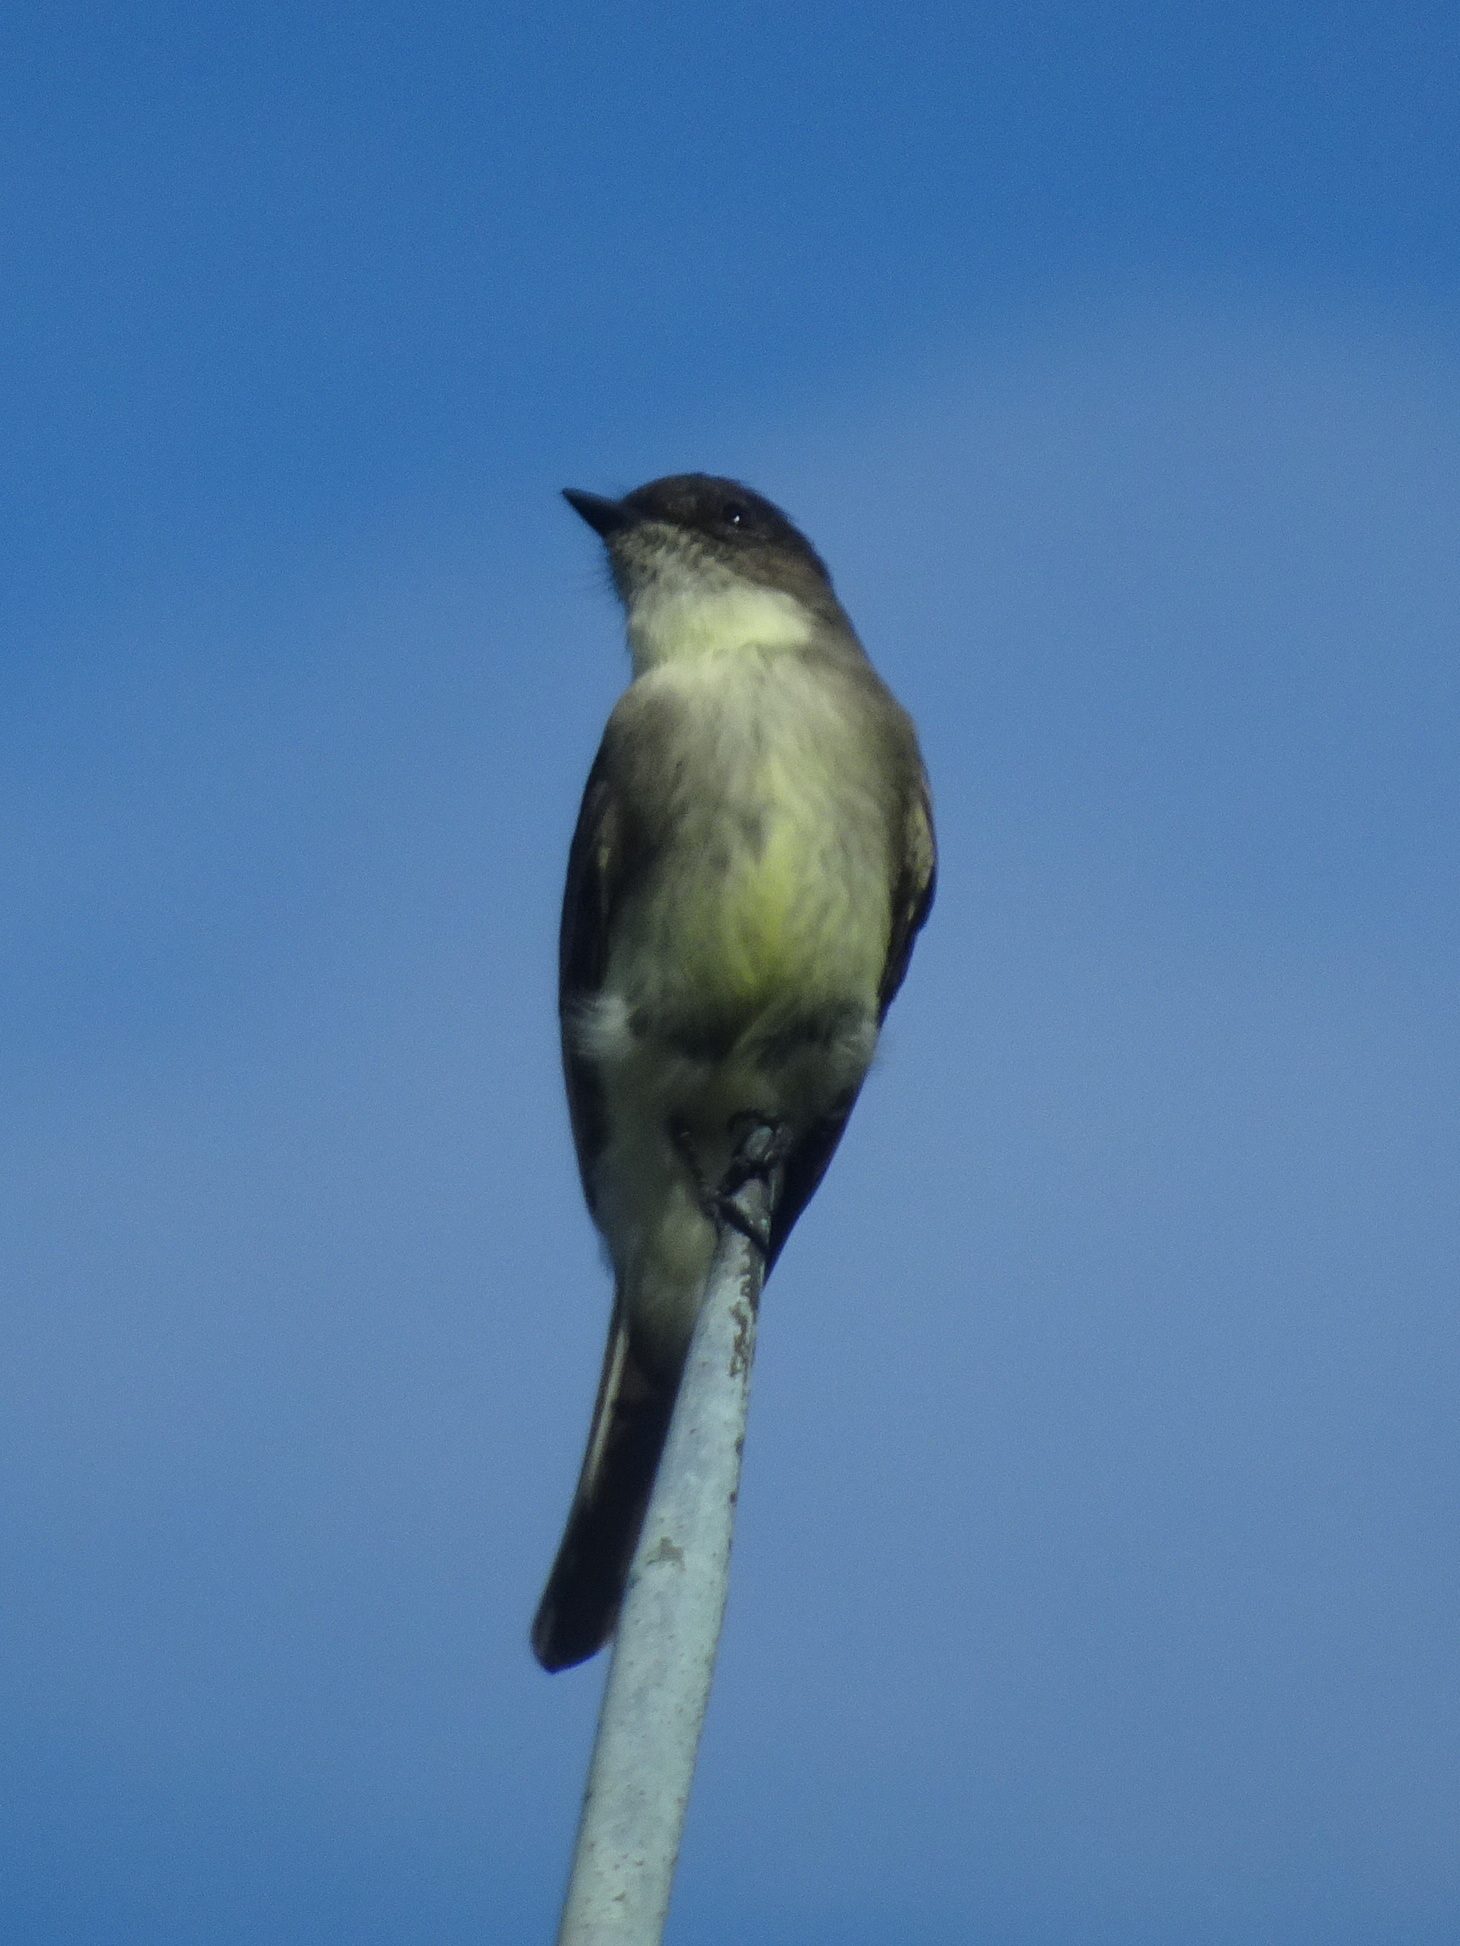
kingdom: Animalia
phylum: Chordata
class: Aves
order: Passeriformes
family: Tyrannidae
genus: Sayornis
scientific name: Sayornis phoebe
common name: Eastern phoebe
